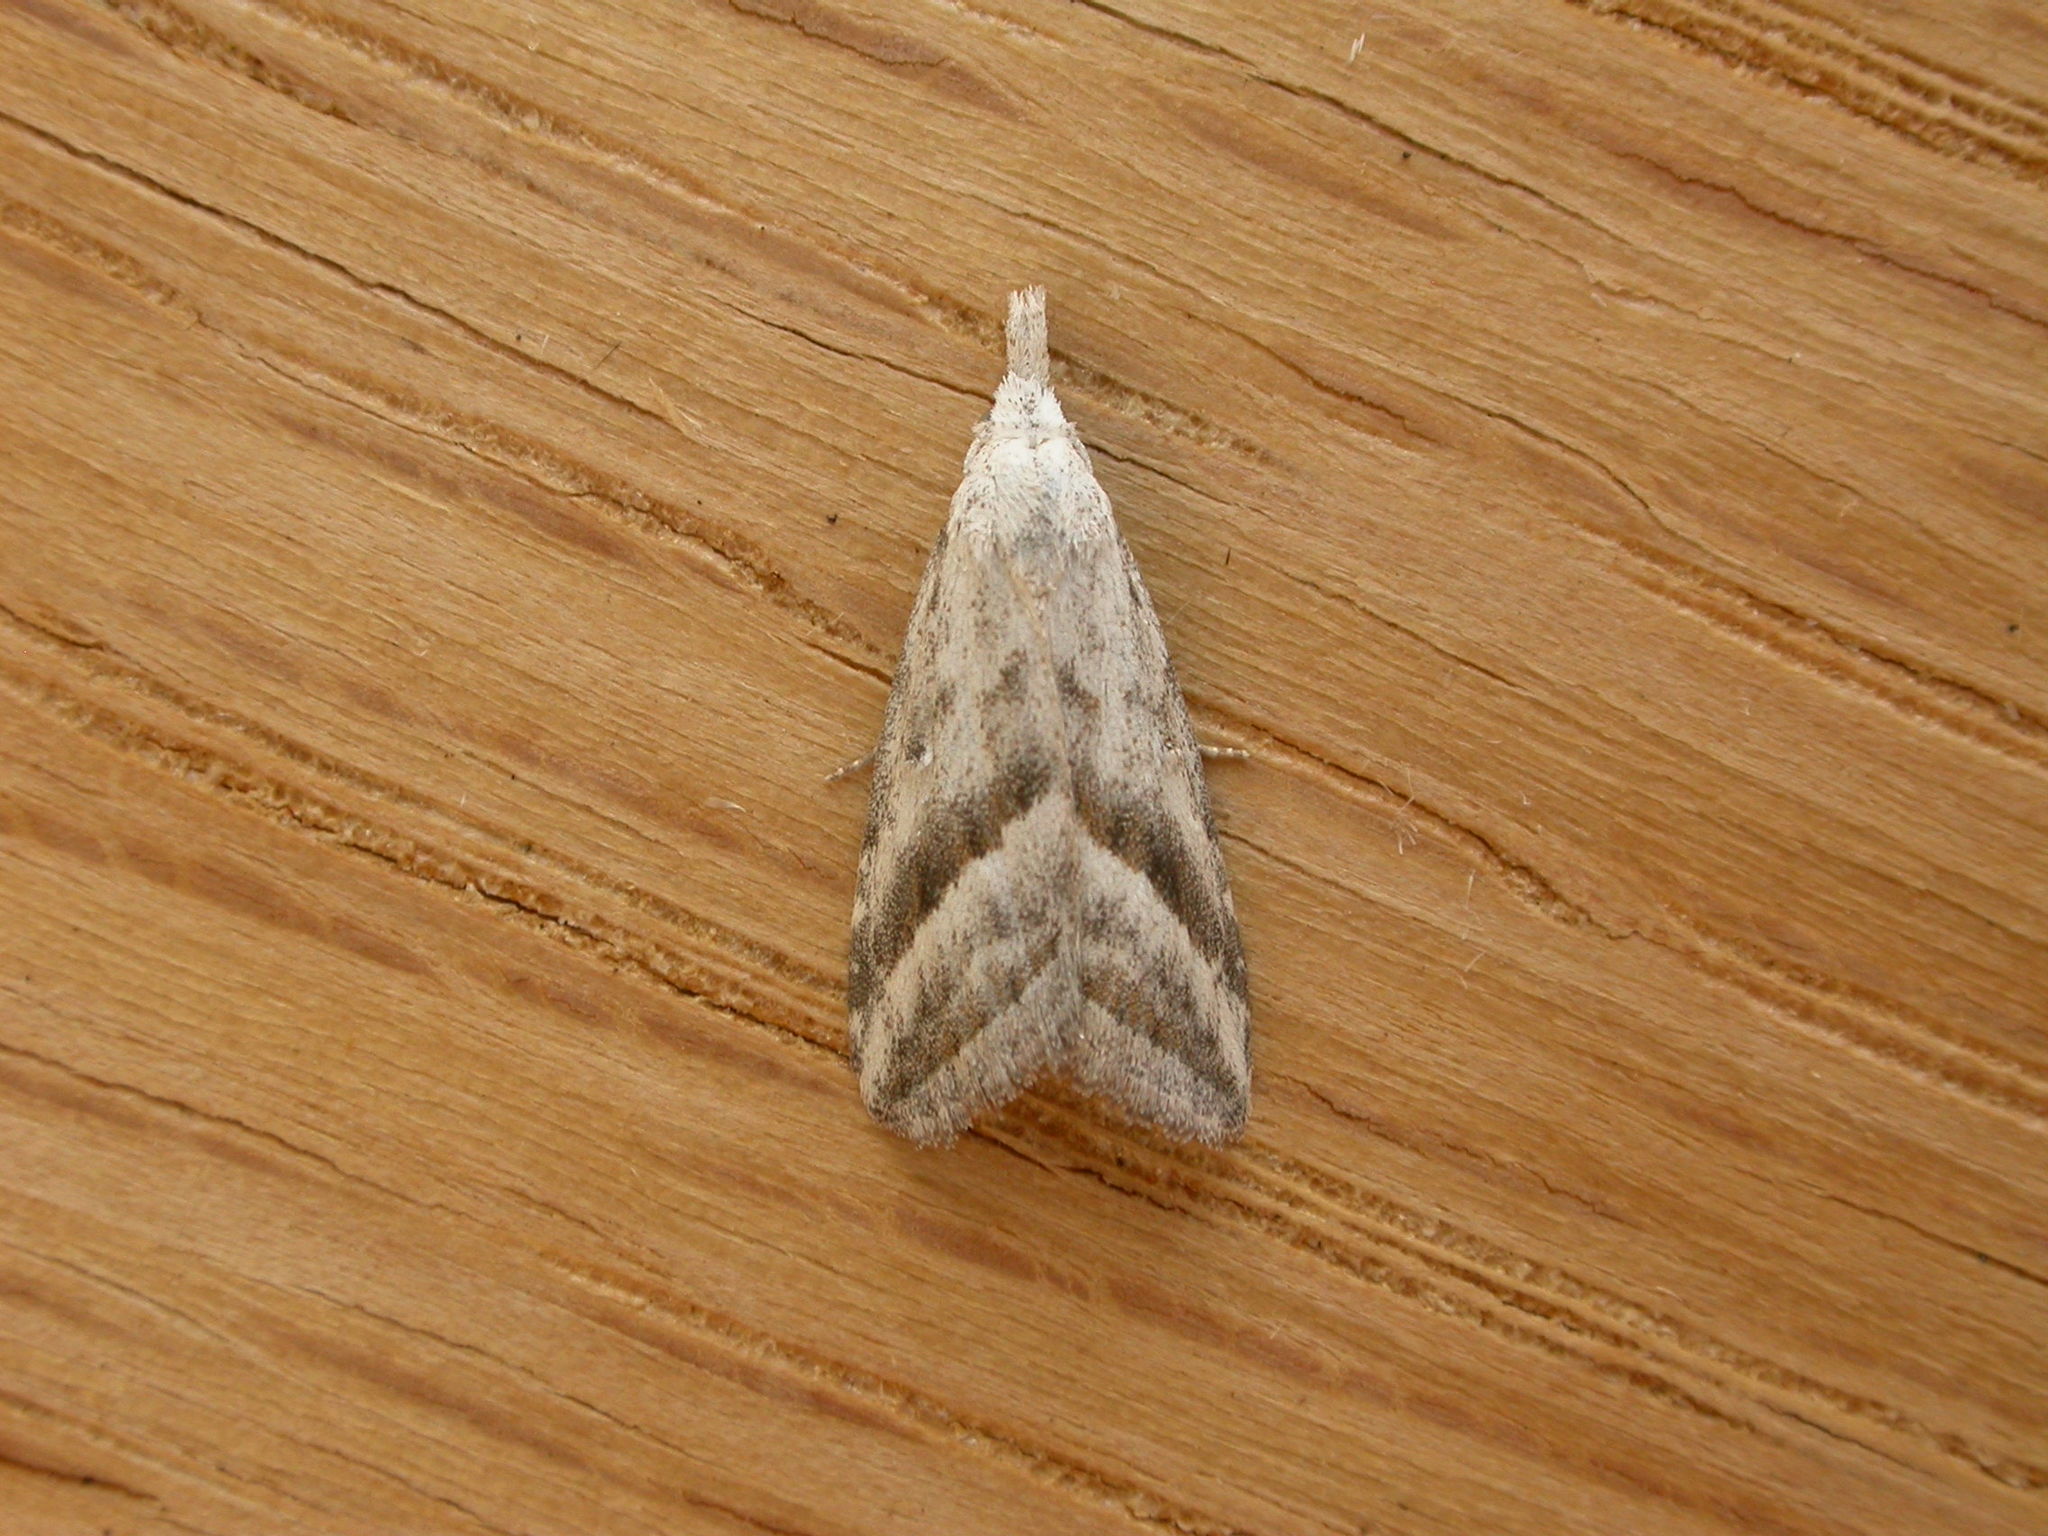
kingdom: Animalia
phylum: Arthropoda
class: Insecta
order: Lepidoptera
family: Nolidae
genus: Nola
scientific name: Nola irenica
